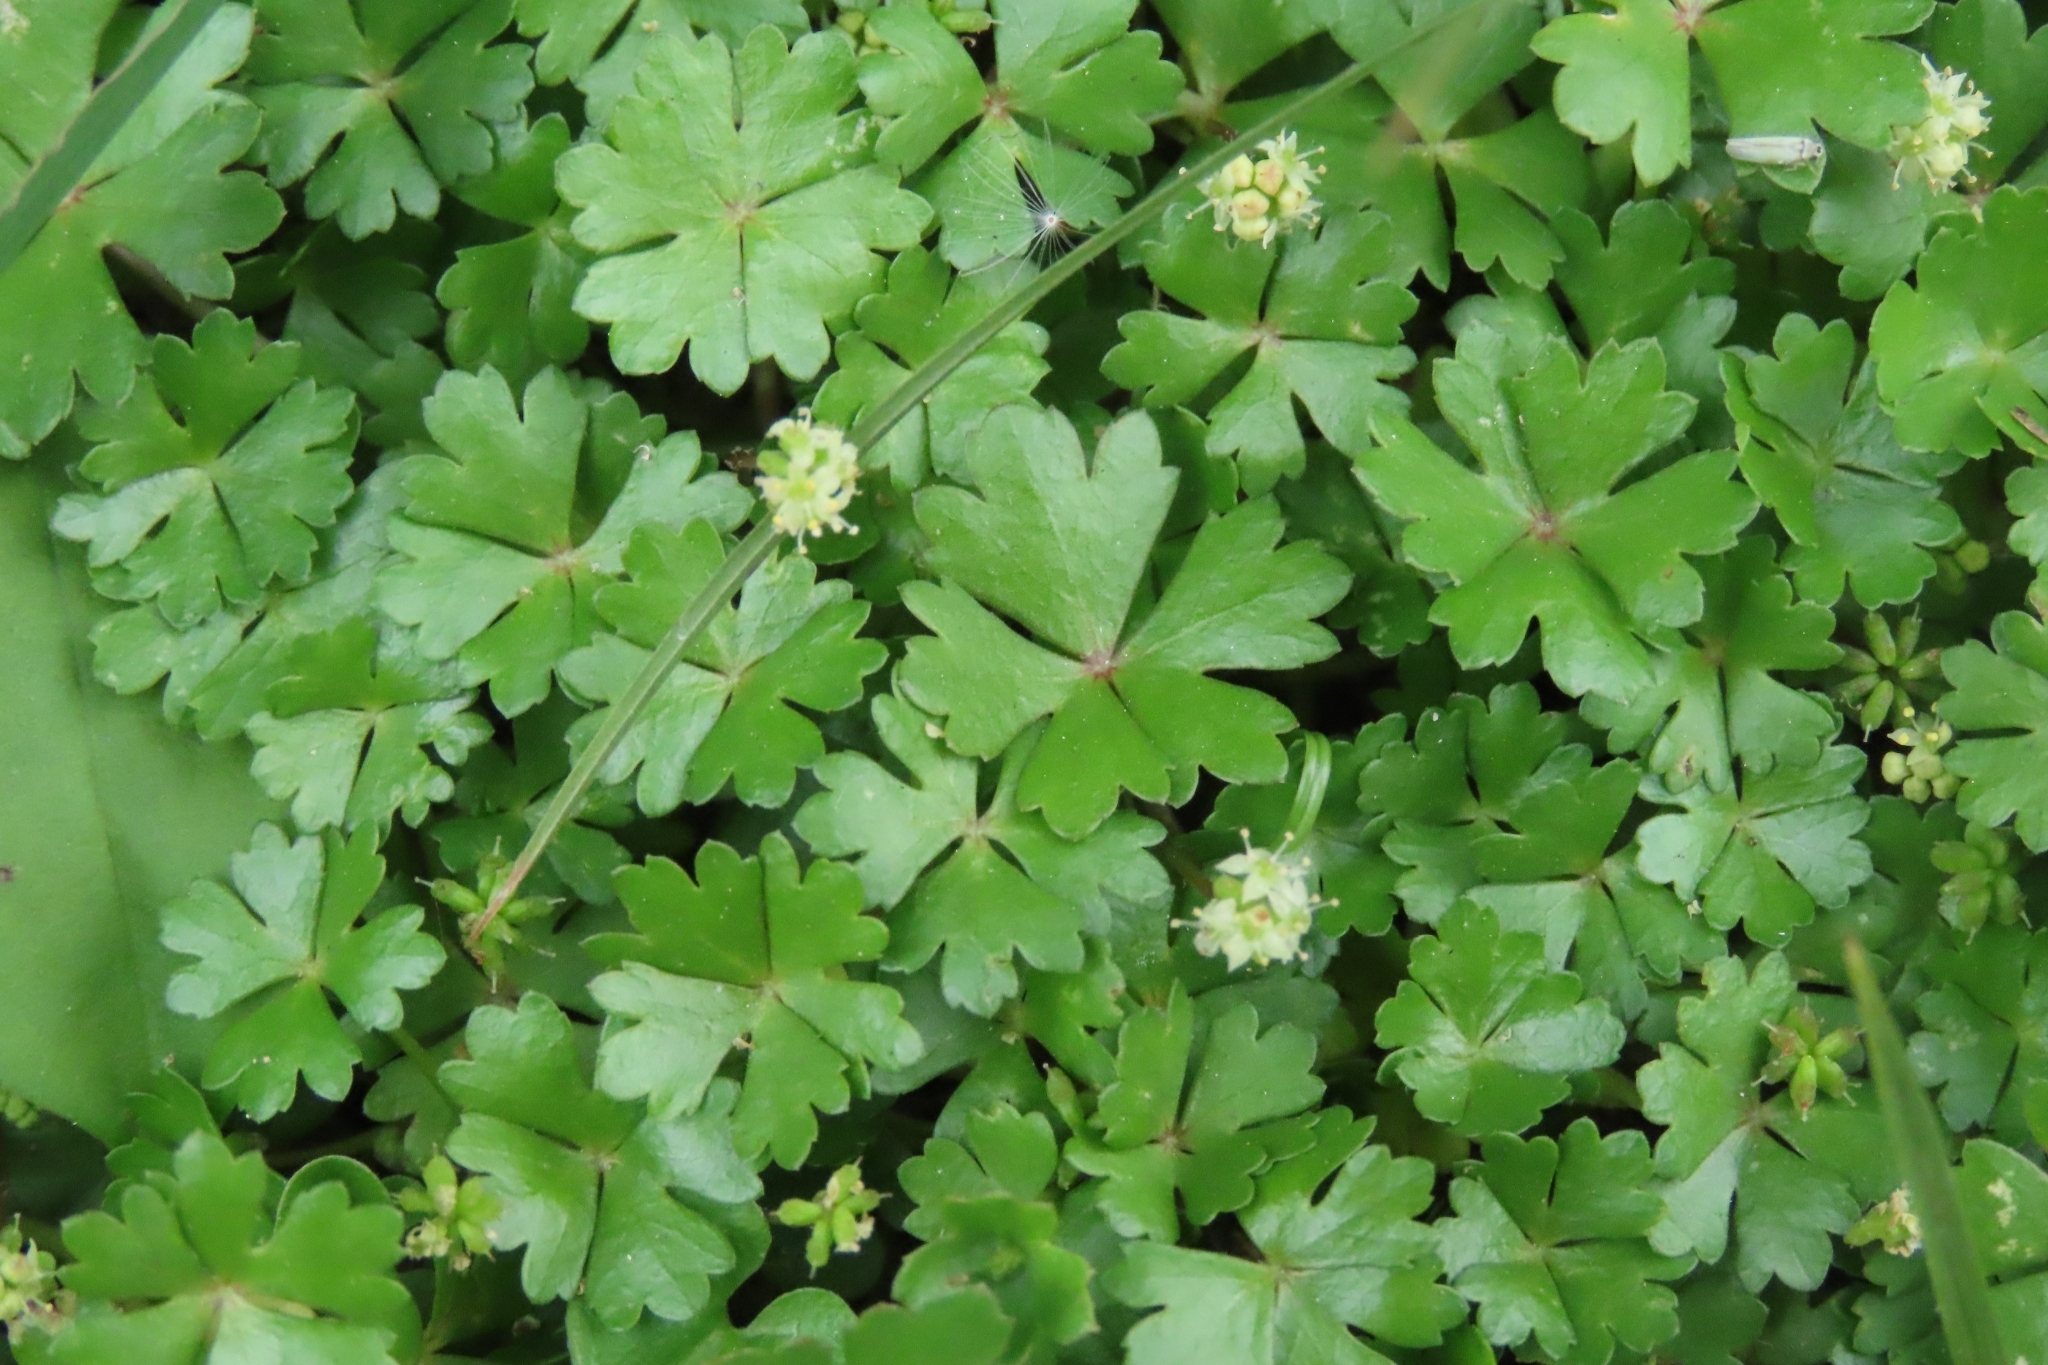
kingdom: Plantae
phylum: Tracheophyta
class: Magnoliopsida
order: Apiales
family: Araliaceae
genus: Hydrocotyle
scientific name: Hydrocotyle batrachium
